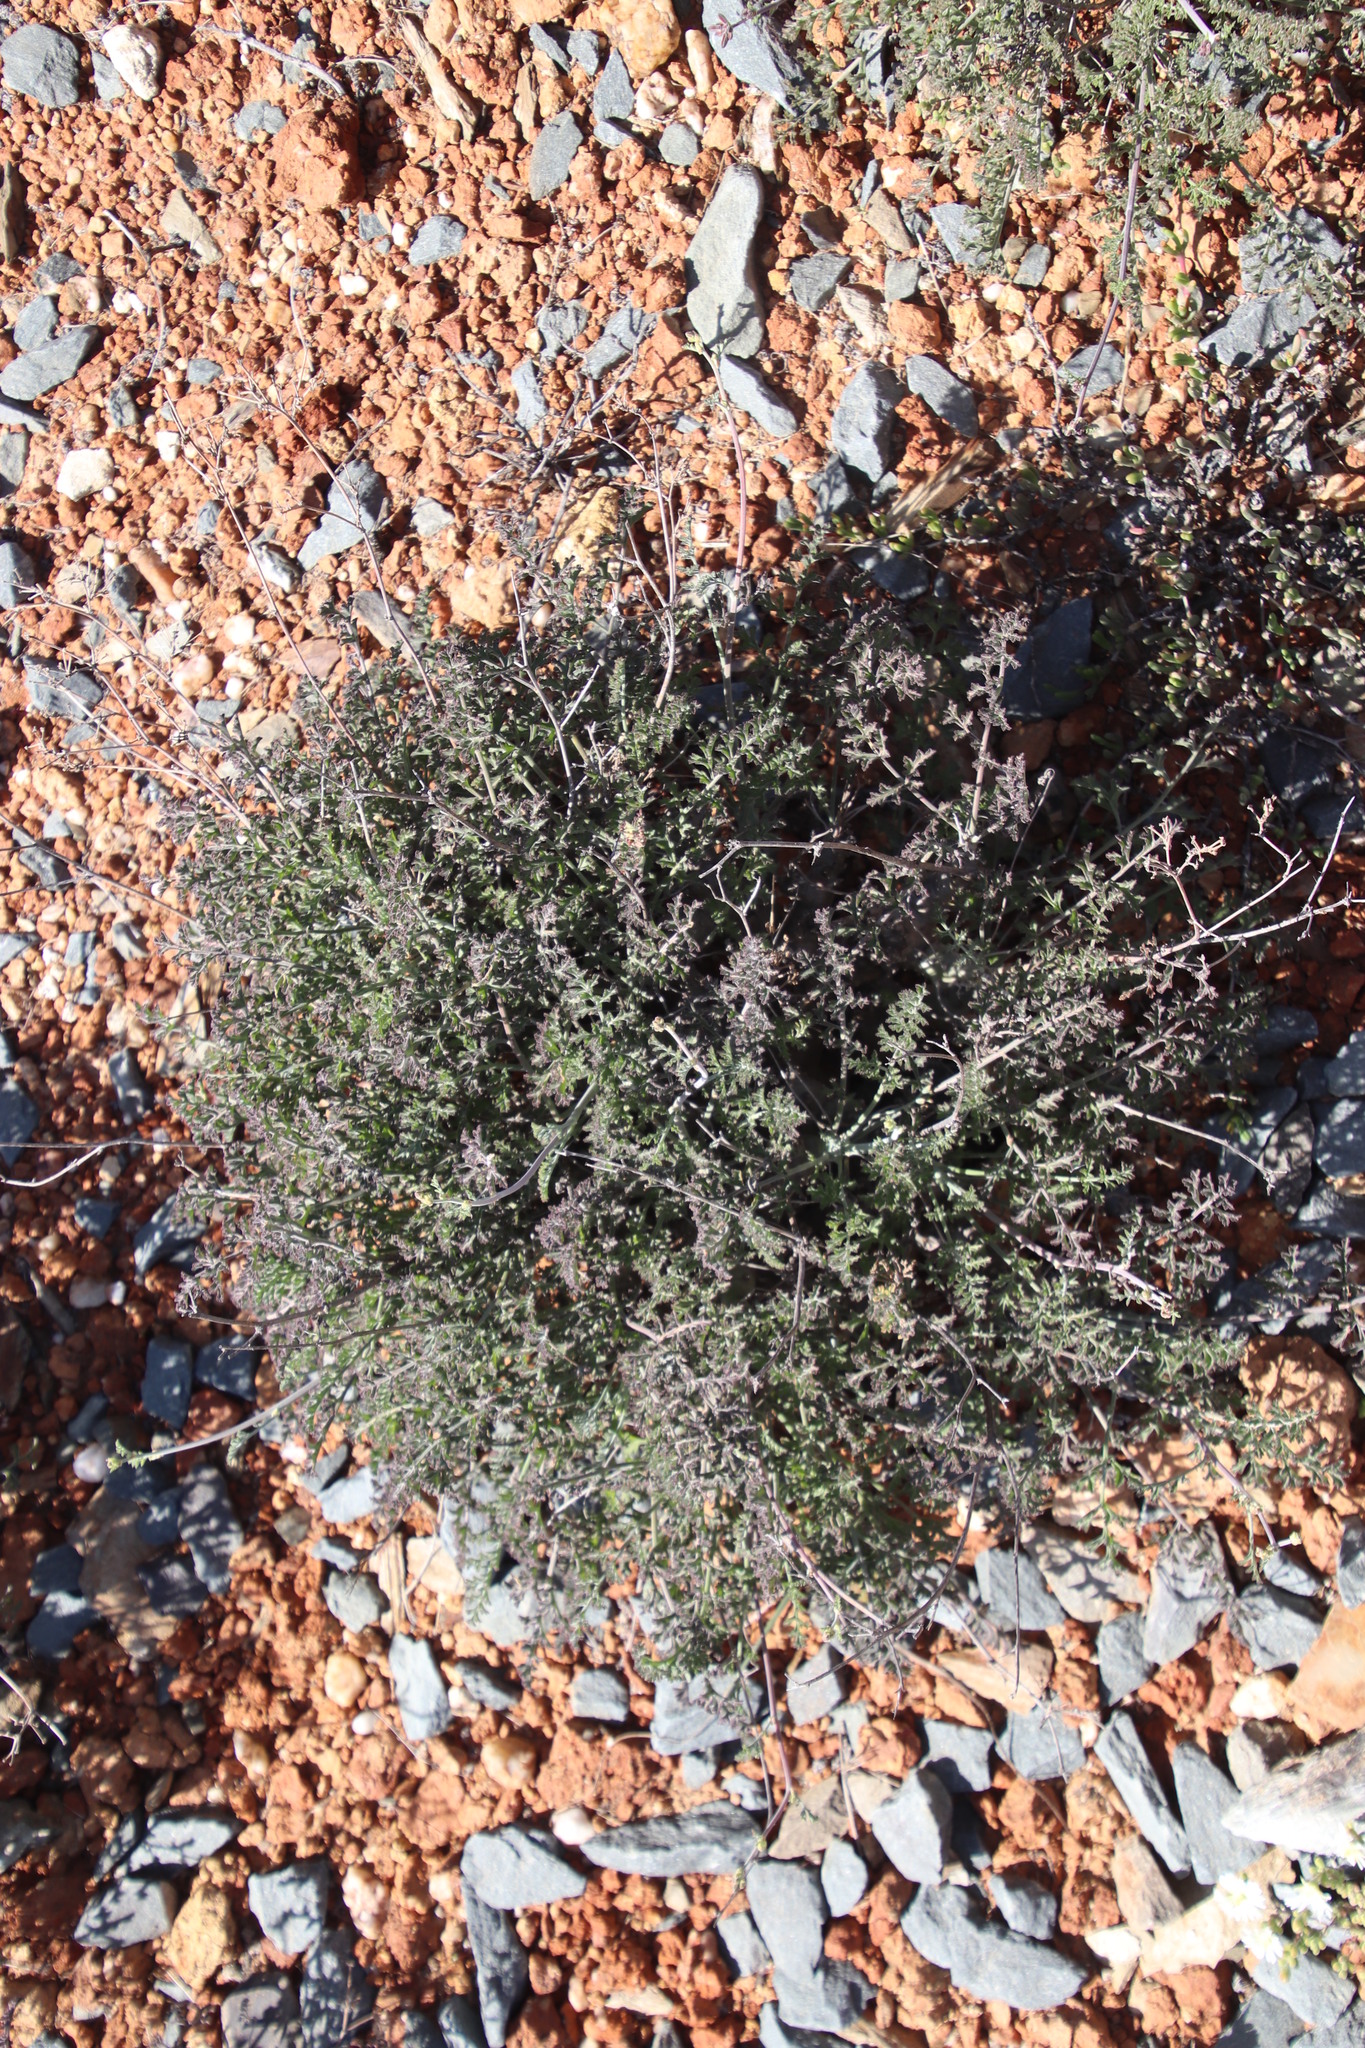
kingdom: Plantae
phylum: Tracheophyta
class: Magnoliopsida
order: Geraniales
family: Geraniaceae
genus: Pelargonium
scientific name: Pelargonium crithmifolium
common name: Samphire-leaf pelargonium
